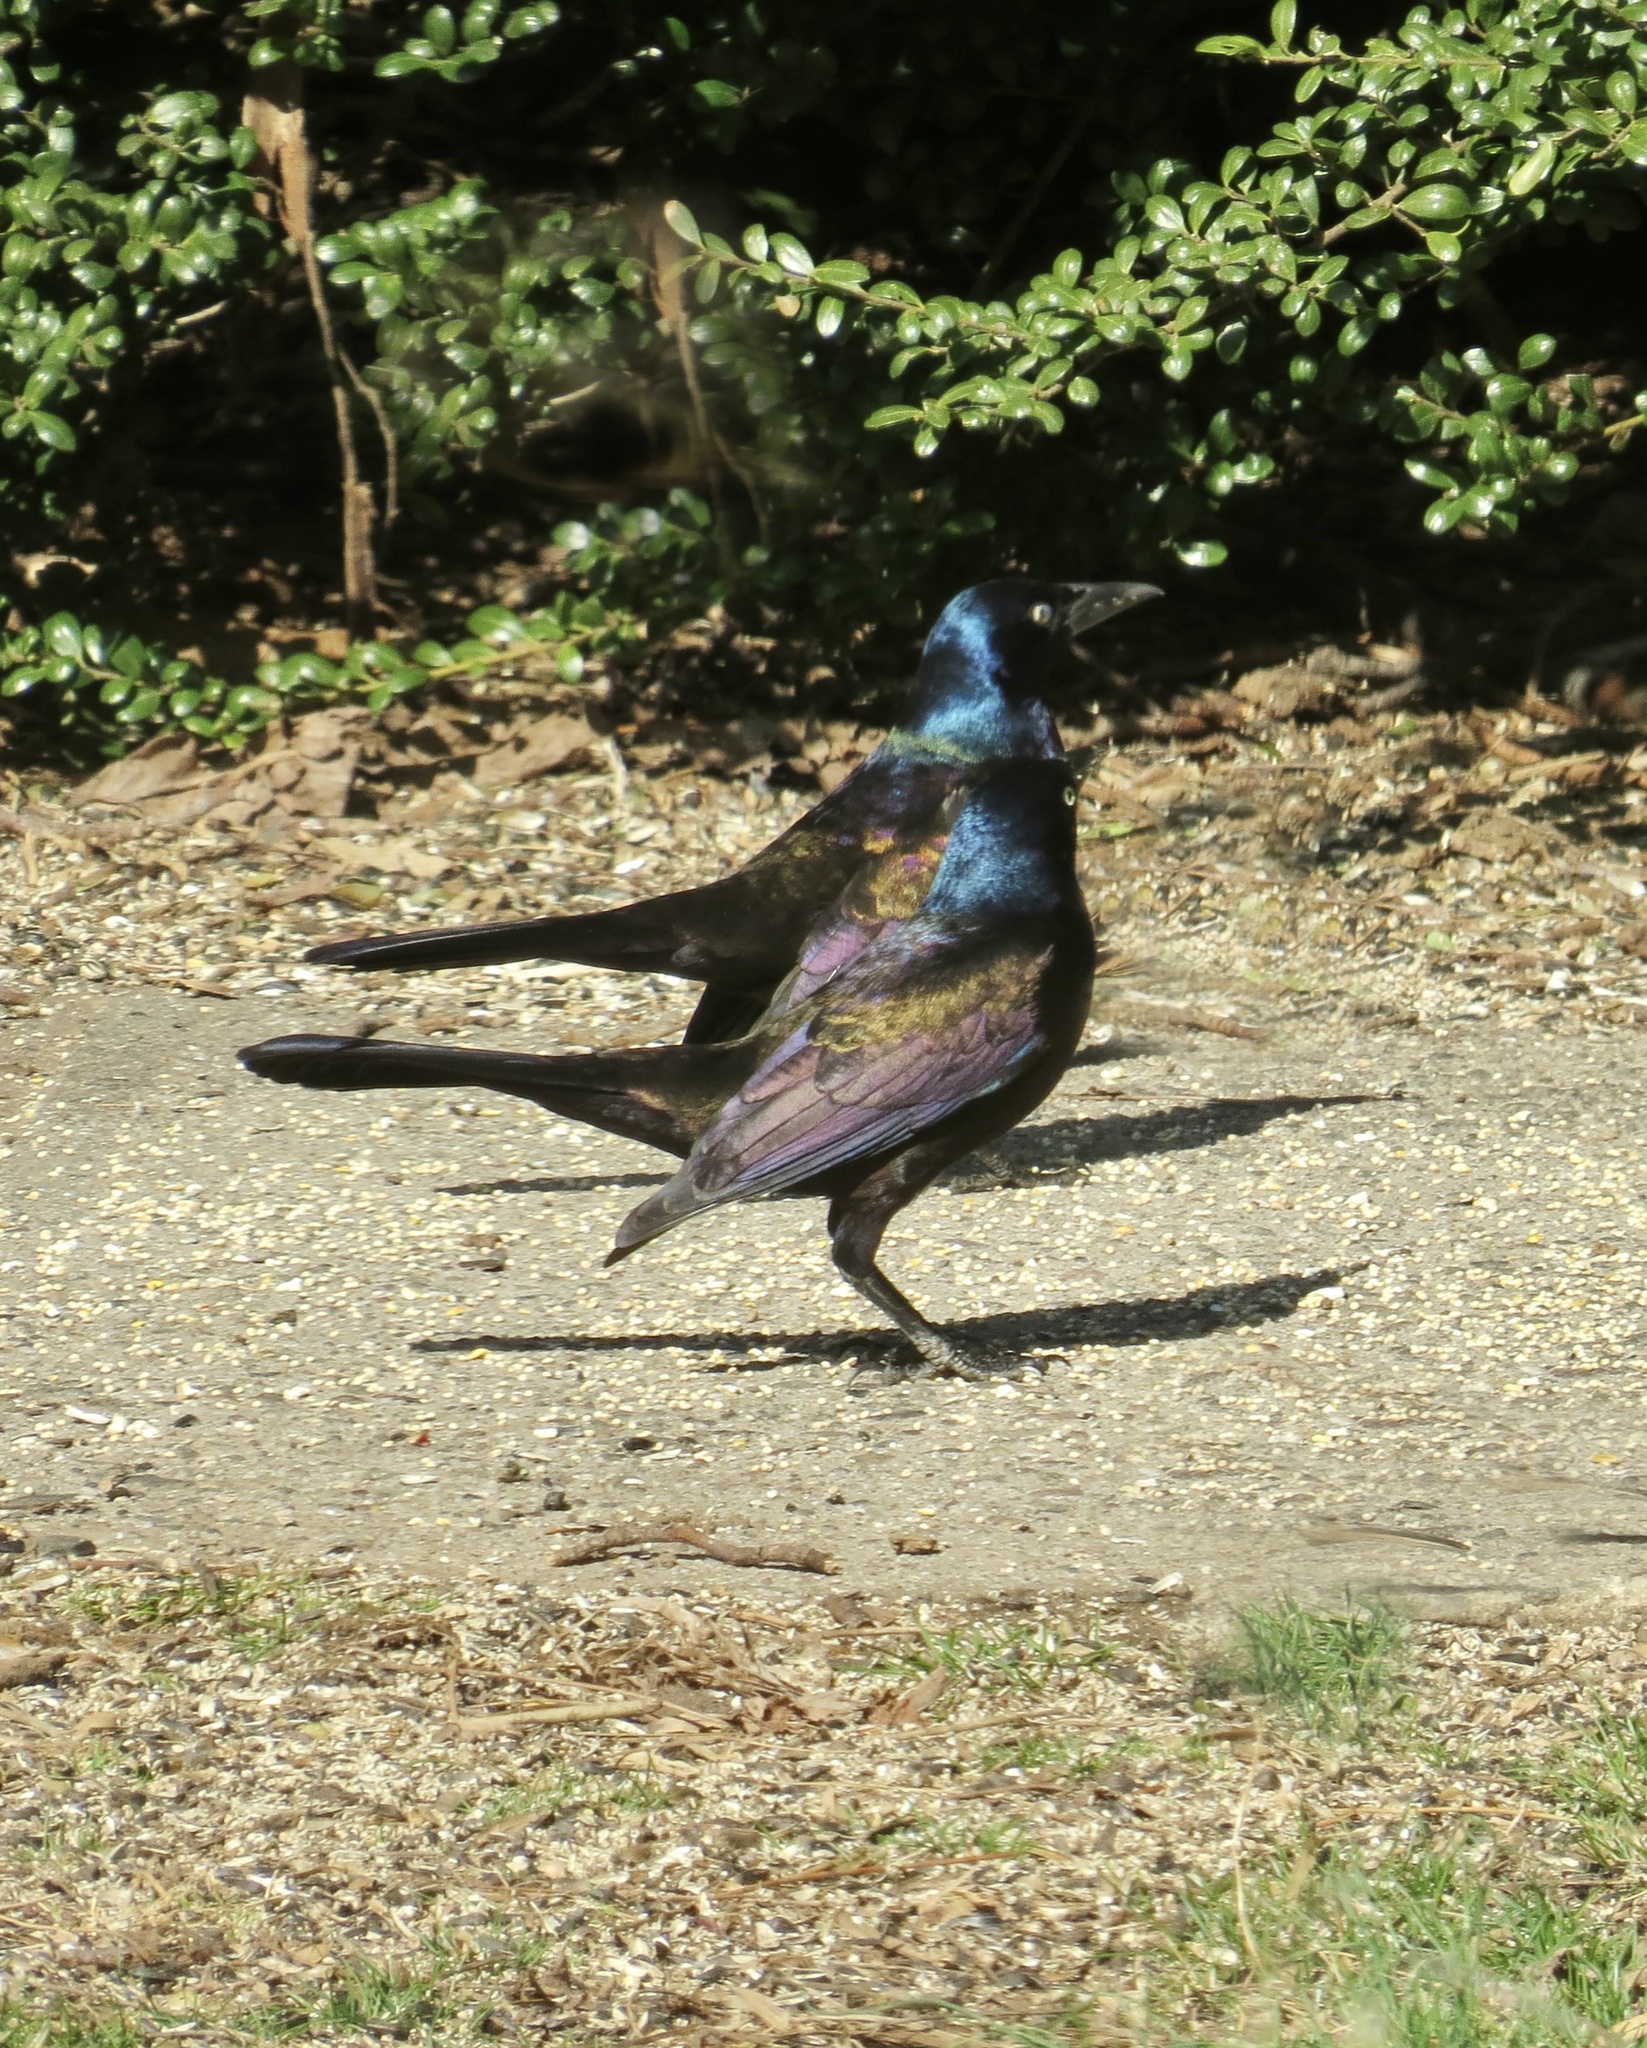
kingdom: Animalia
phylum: Chordata
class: Aves
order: Passeriformes
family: Icteridae
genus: Quiscalus
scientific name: Quiscalus quiscula
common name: Common grackle
